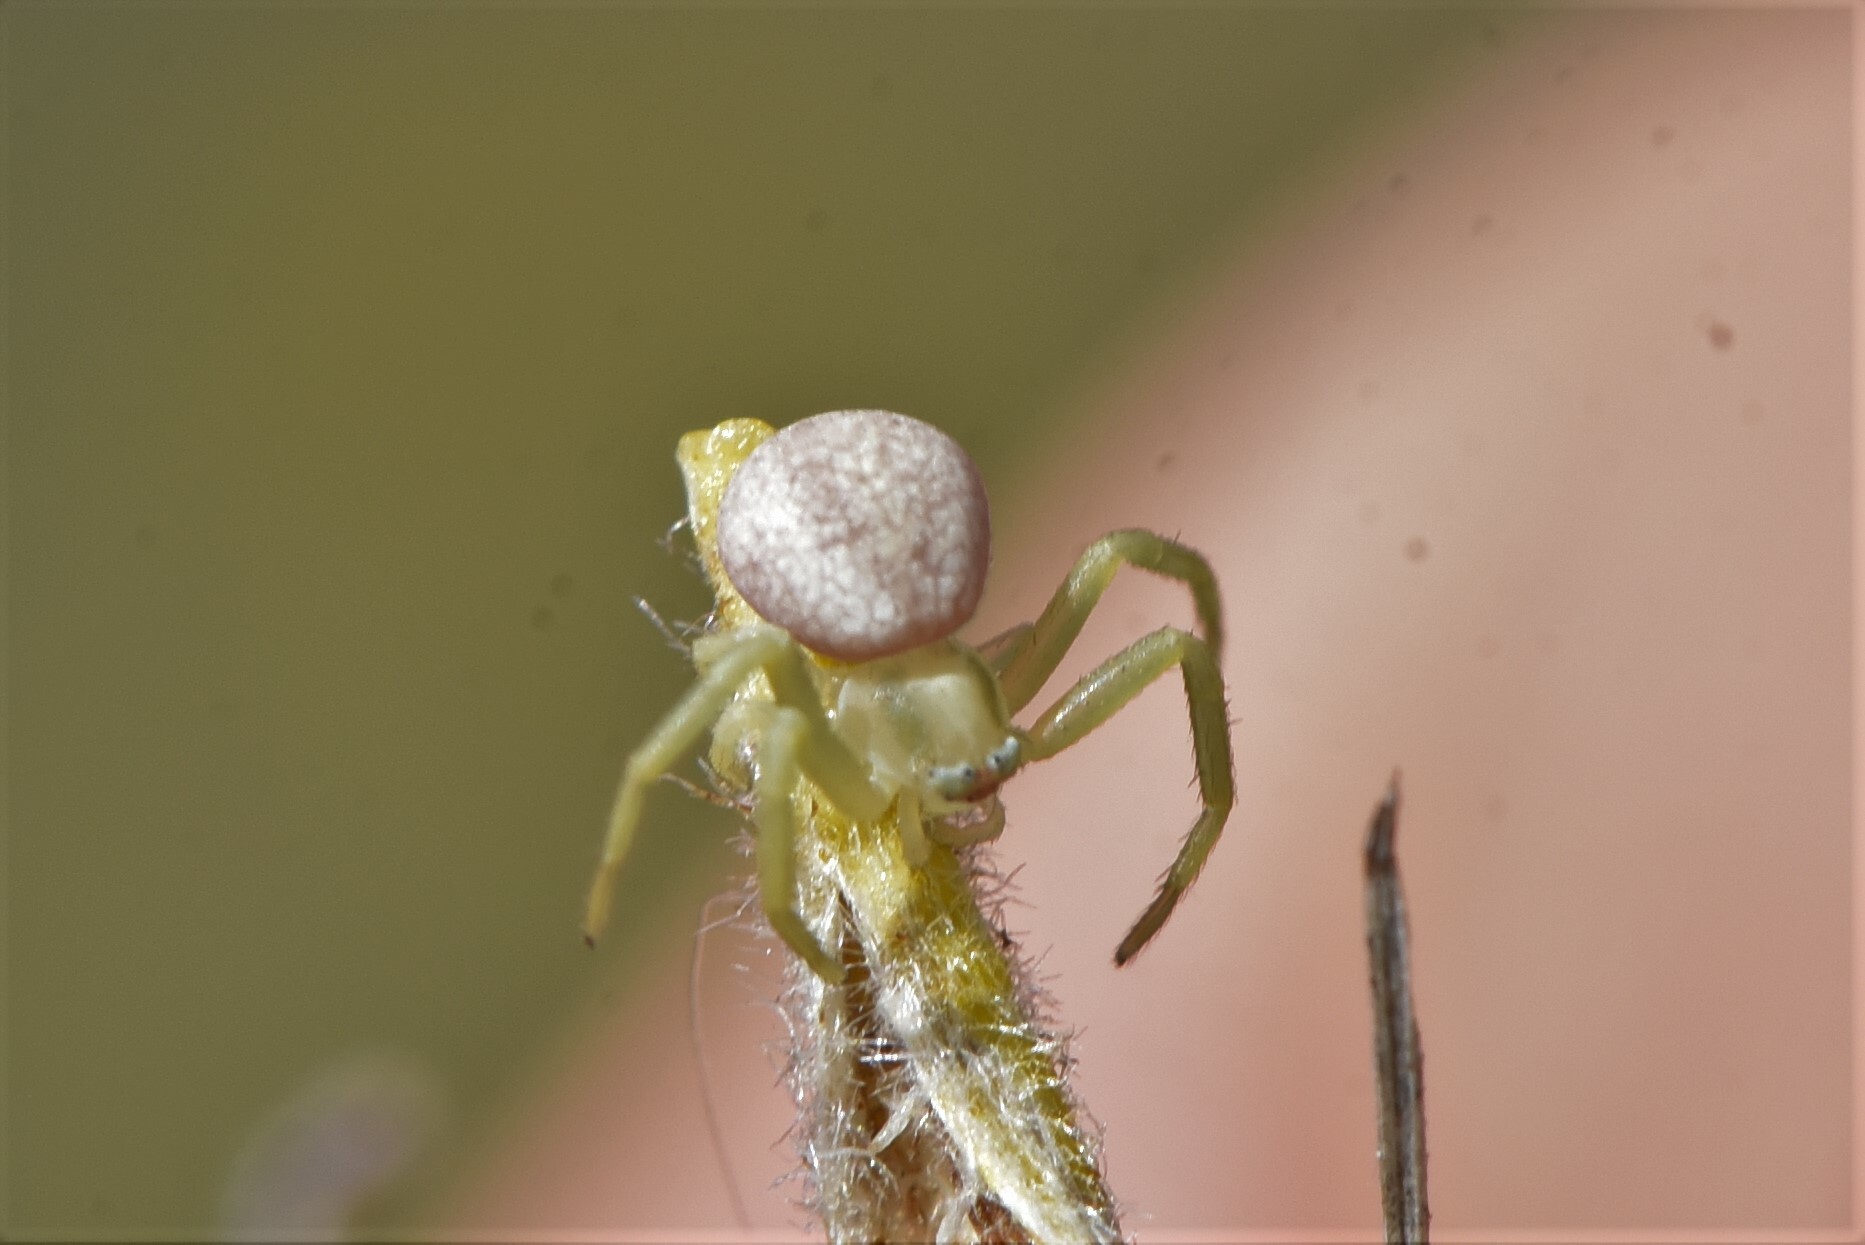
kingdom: Animalia
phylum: Arthropoda
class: Arachnida
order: Araneae
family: Thomisidae
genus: Misumena
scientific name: Misumena vatia
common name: Goldenrod crab spider
